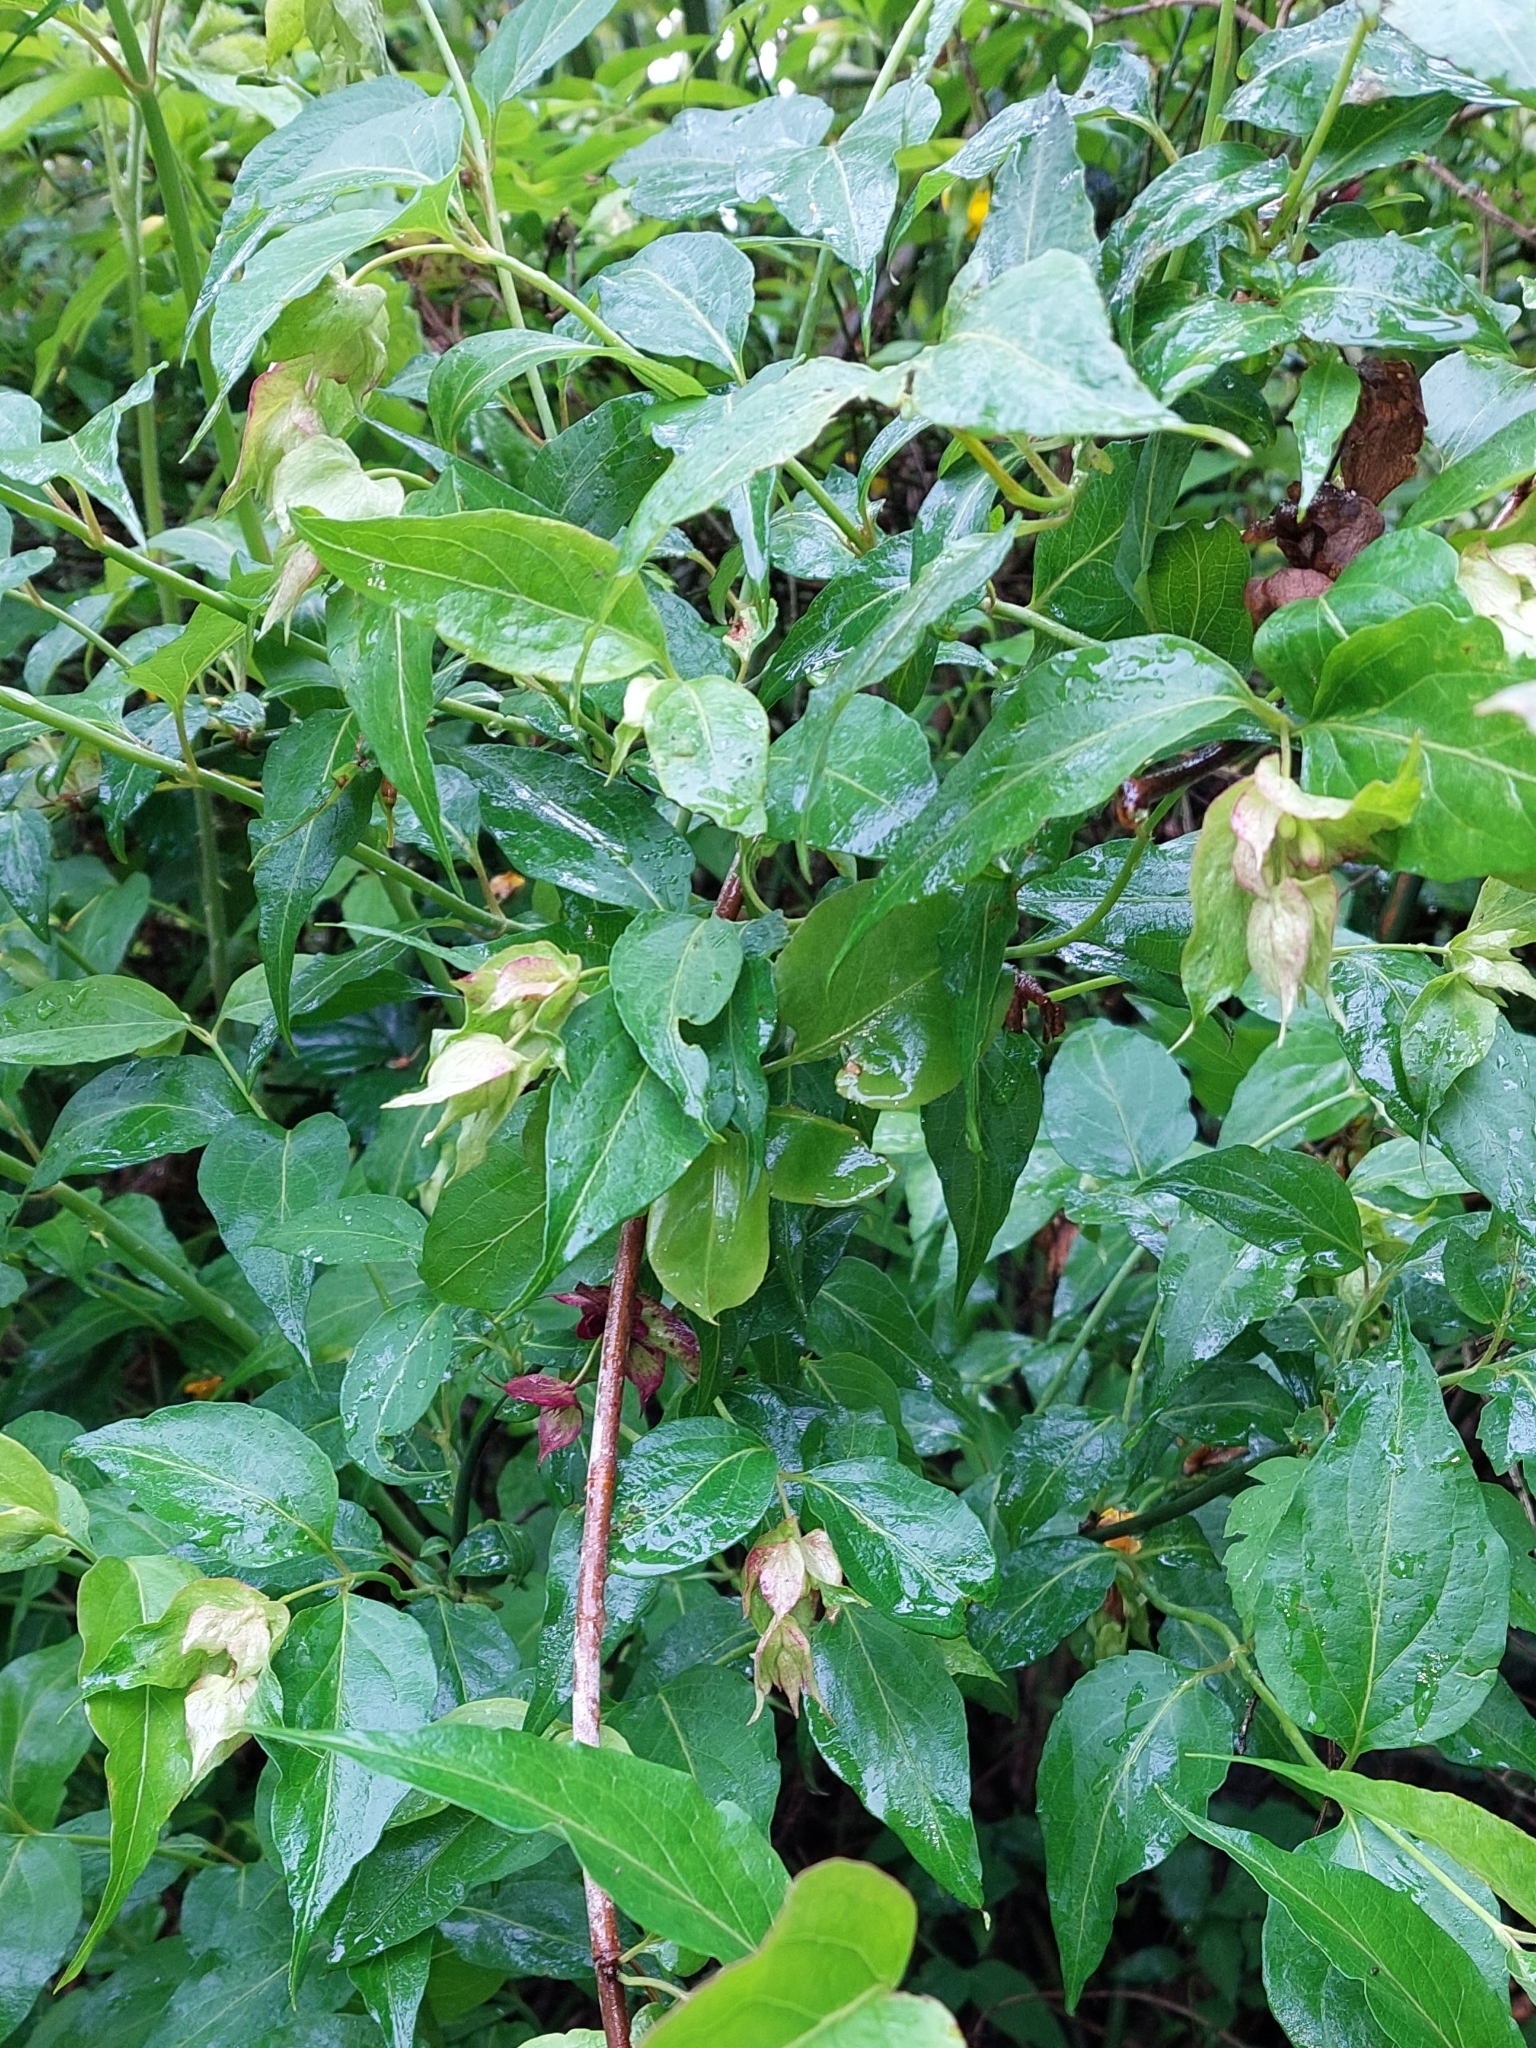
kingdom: Plantae
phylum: Tracheophyta
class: Magnoliopsida
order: Dipsacales
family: Caprifoliaceae
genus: Leycesteria
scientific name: Leycesteria formosa
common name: Himalayan honeysuckle
